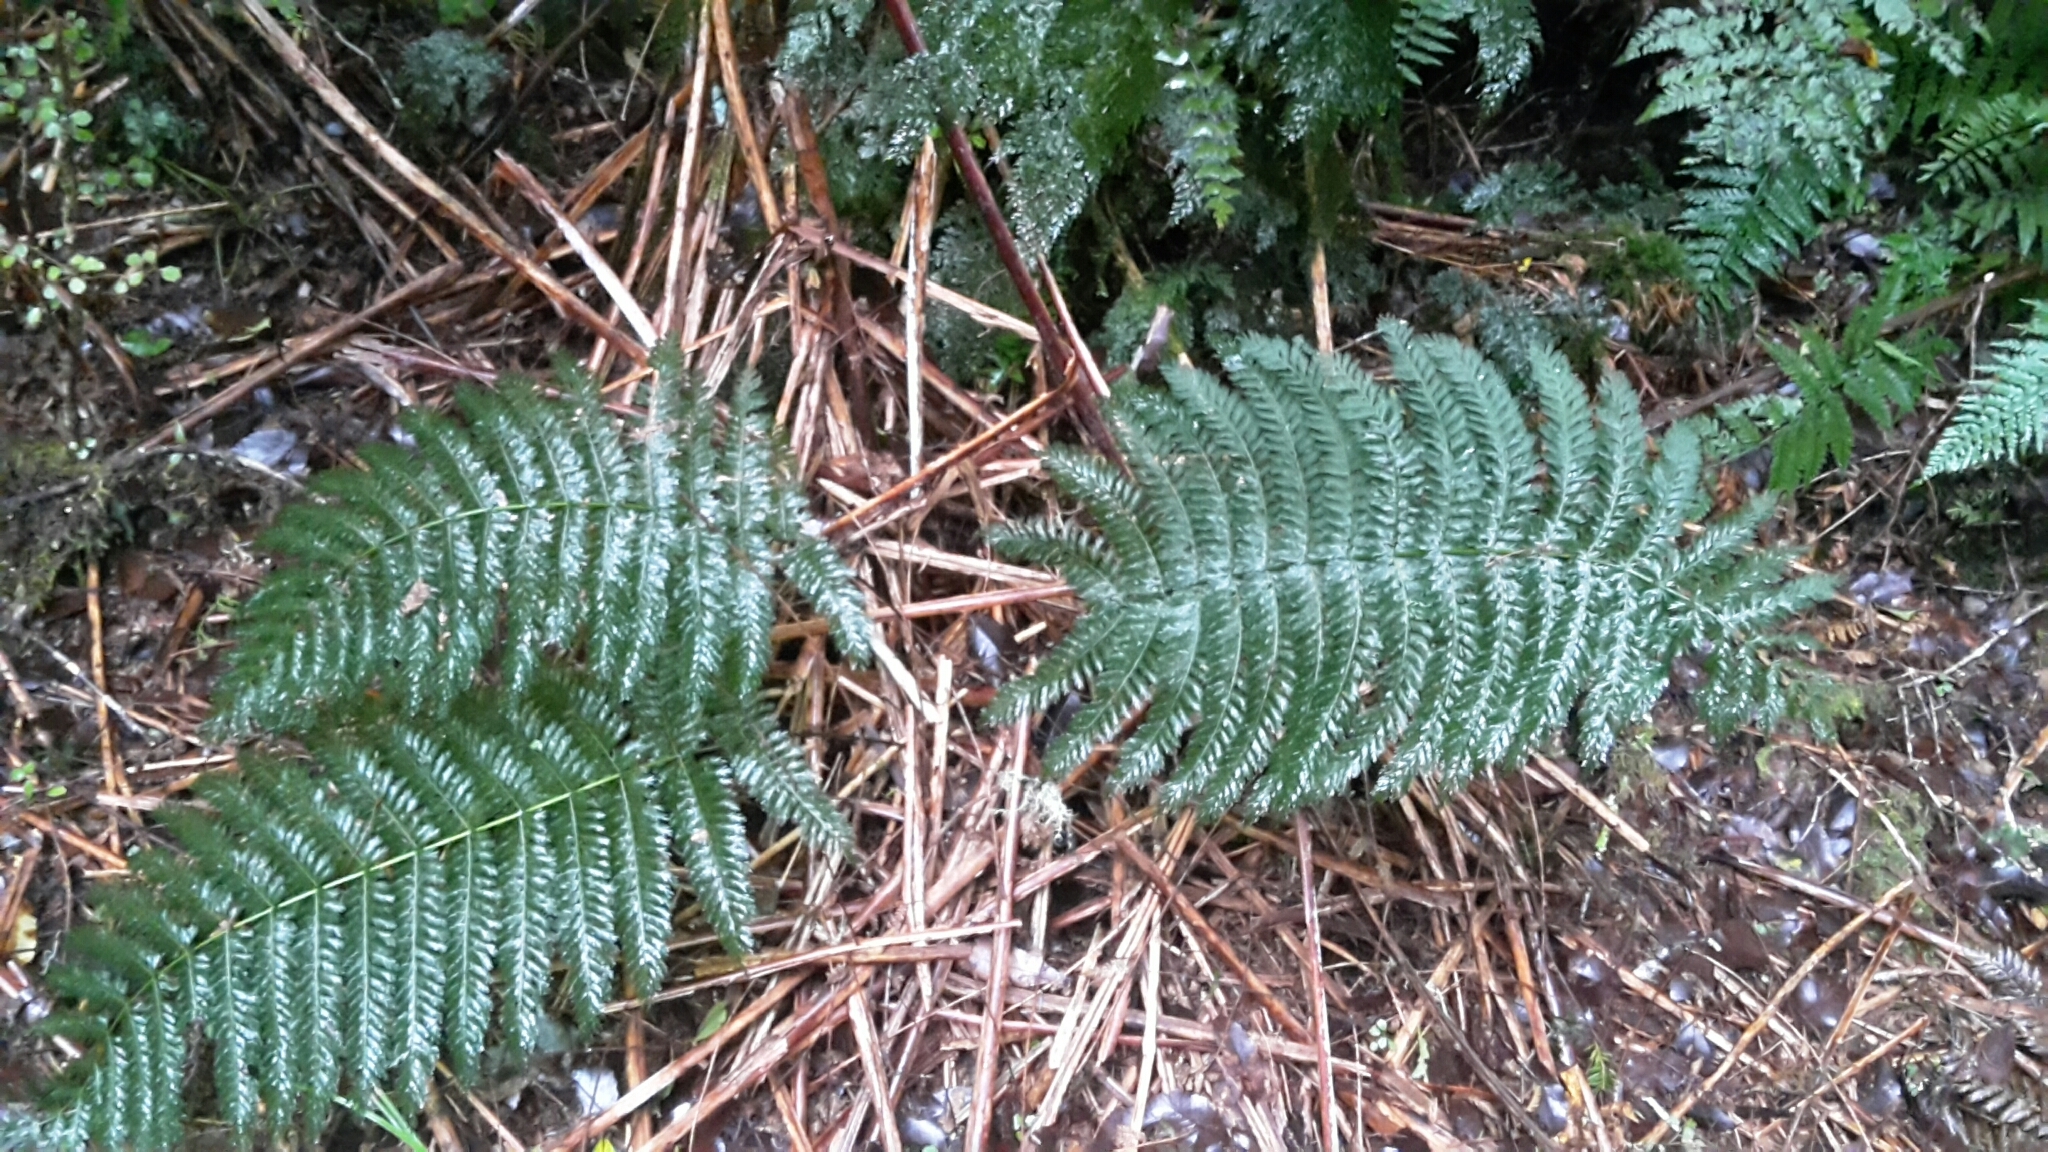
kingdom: Plantae
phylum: Tracheophyta
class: Polypodiopsida
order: Osmundales
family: Osmundaceae
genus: Leptopteris
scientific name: Leptopteris hymenophylloides
